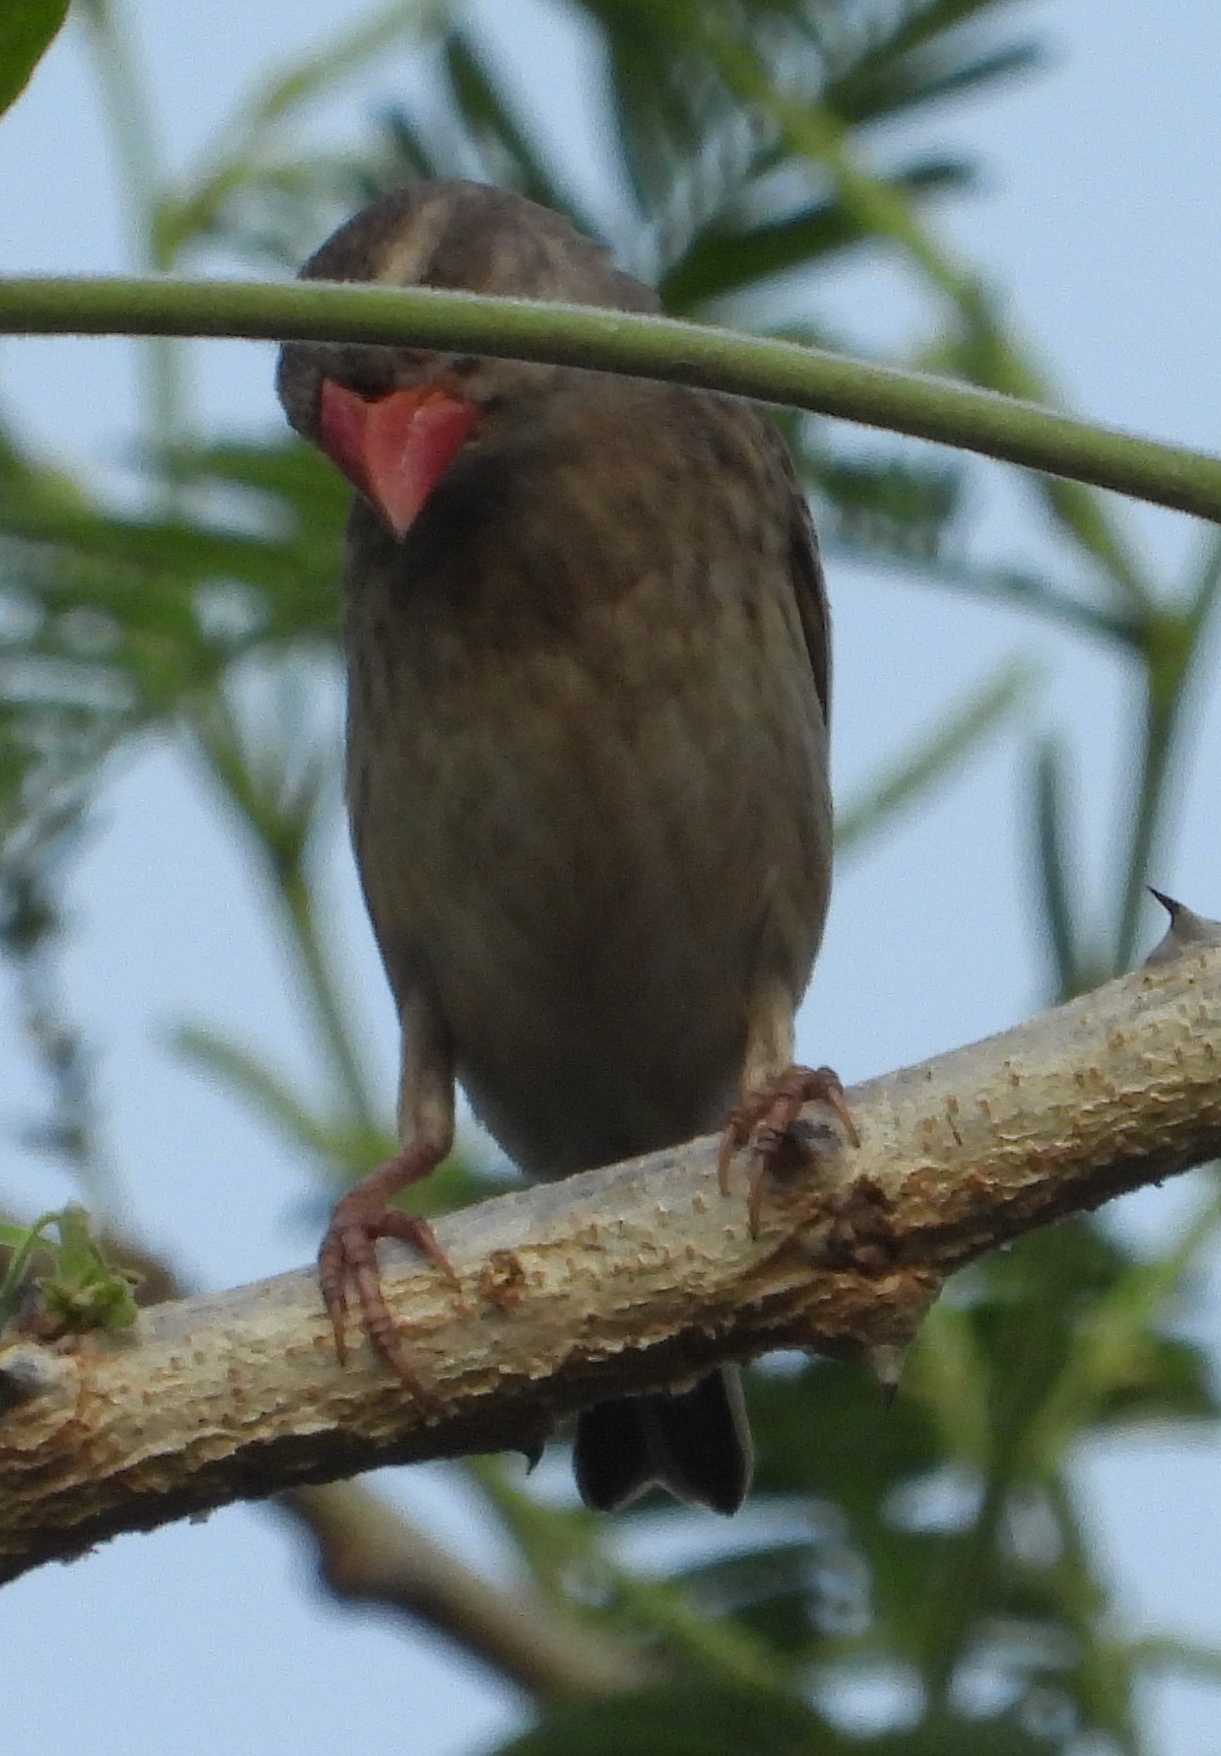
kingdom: Animalia
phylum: Chordata
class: Aves
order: Passeriformes
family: Ploceidae
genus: Quelea
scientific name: Quelea quelea
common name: Red-billed quelea
